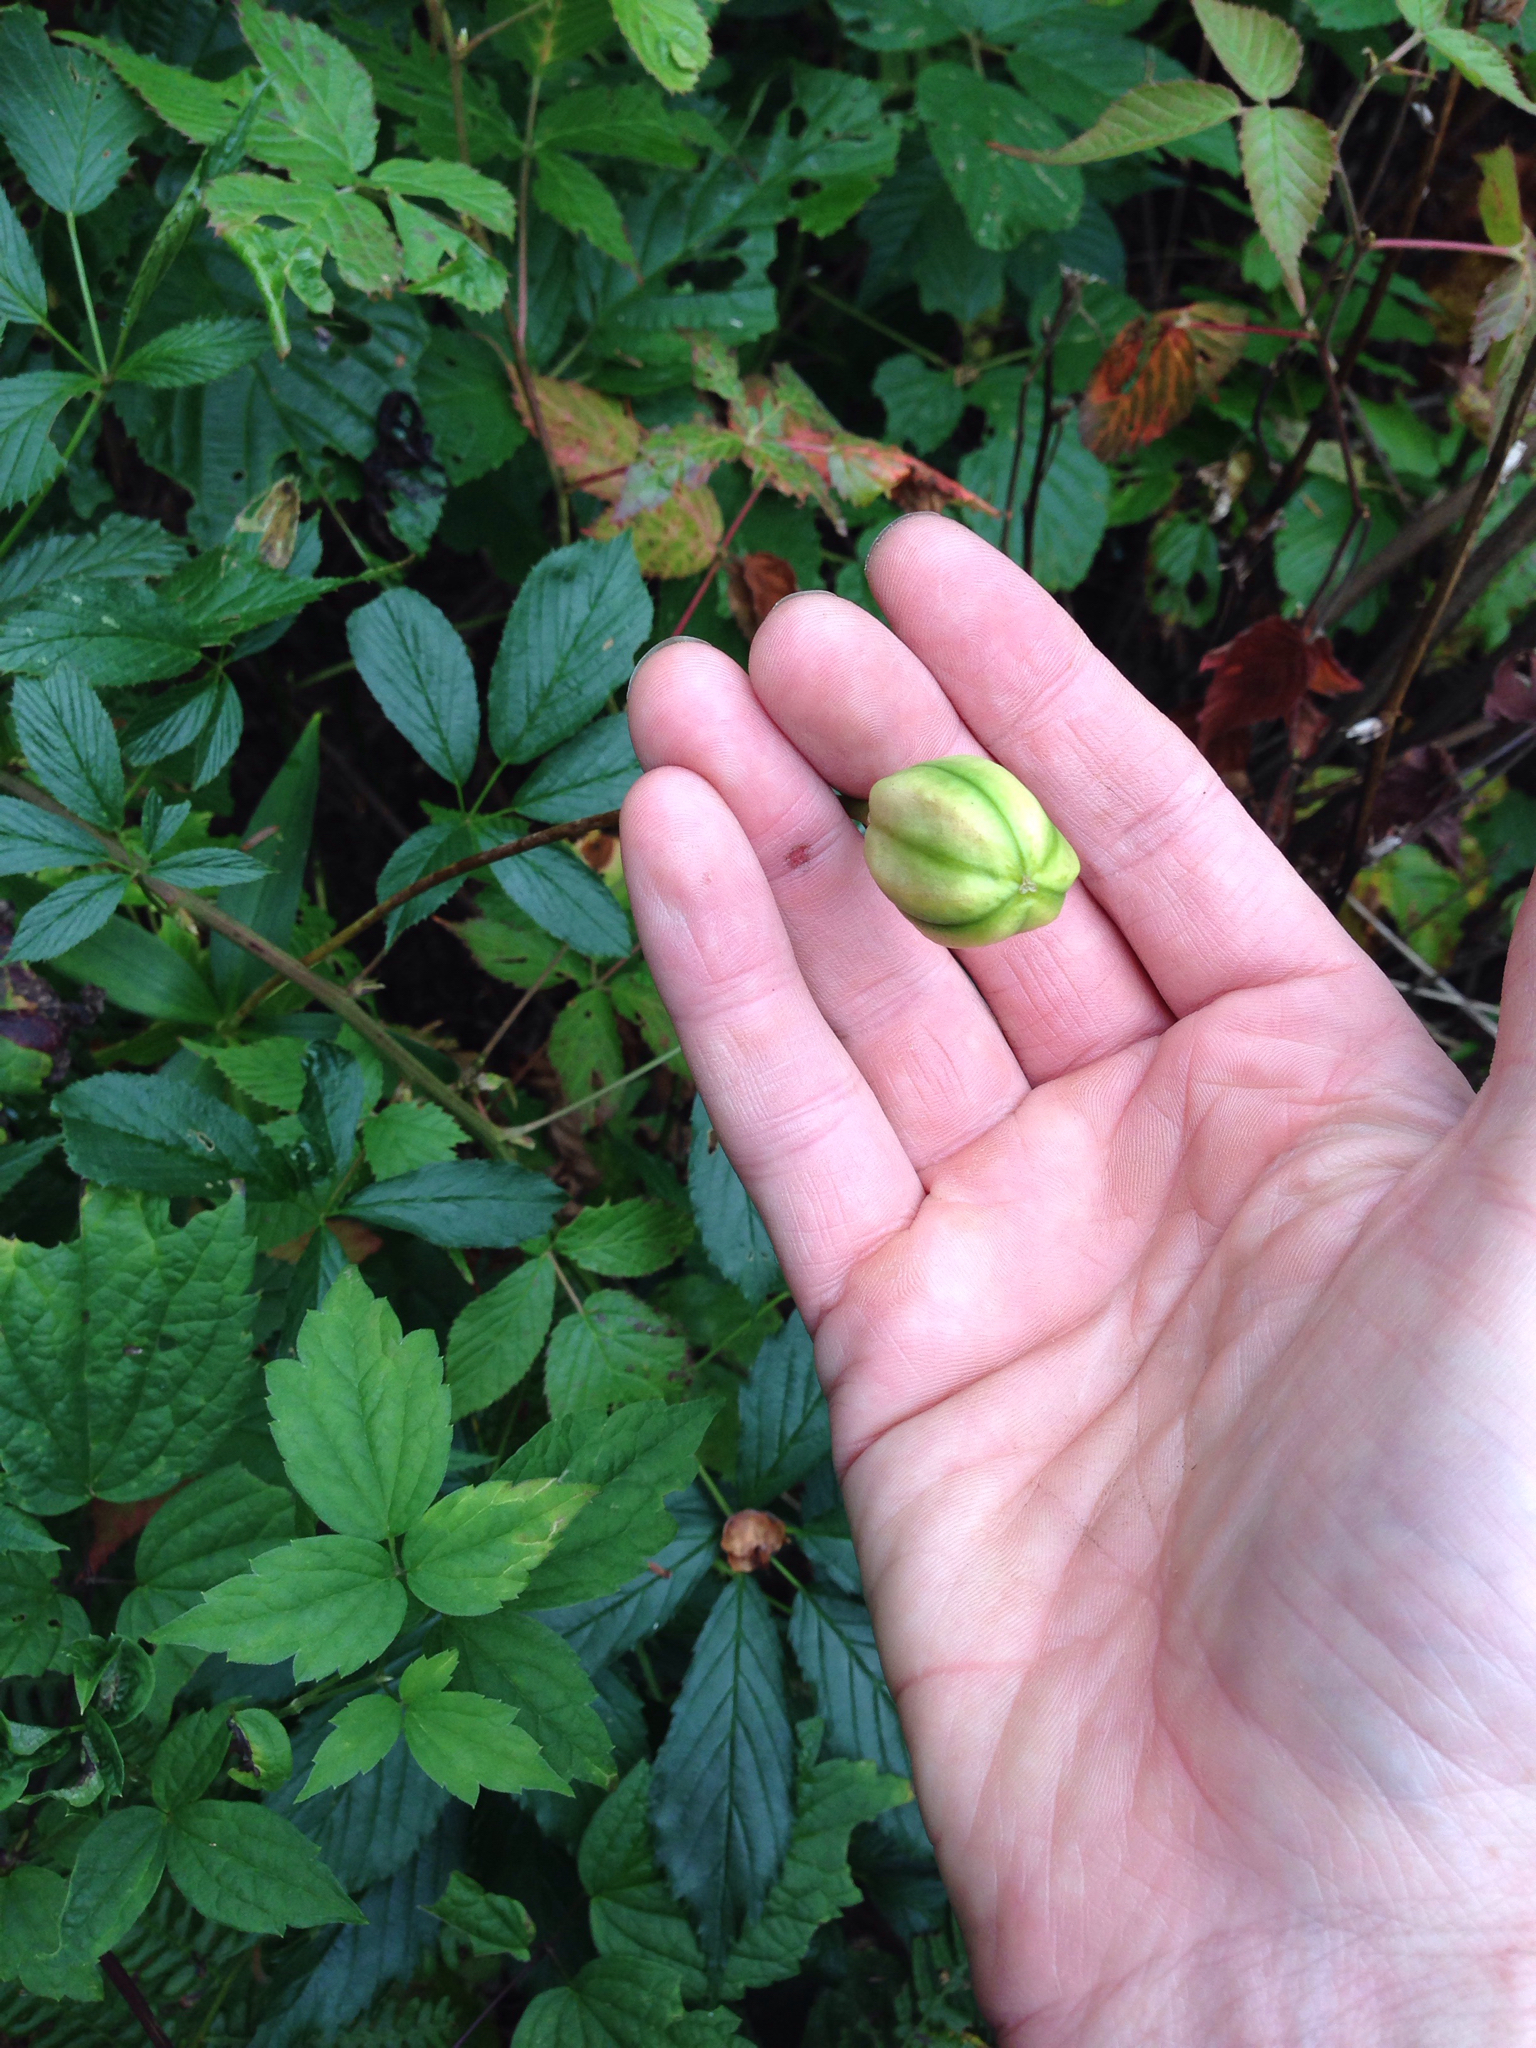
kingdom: Plantae
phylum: Tracheophyta
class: Liliopsida
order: Liliales
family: Liliaceae
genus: Lilium
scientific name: Lilium
